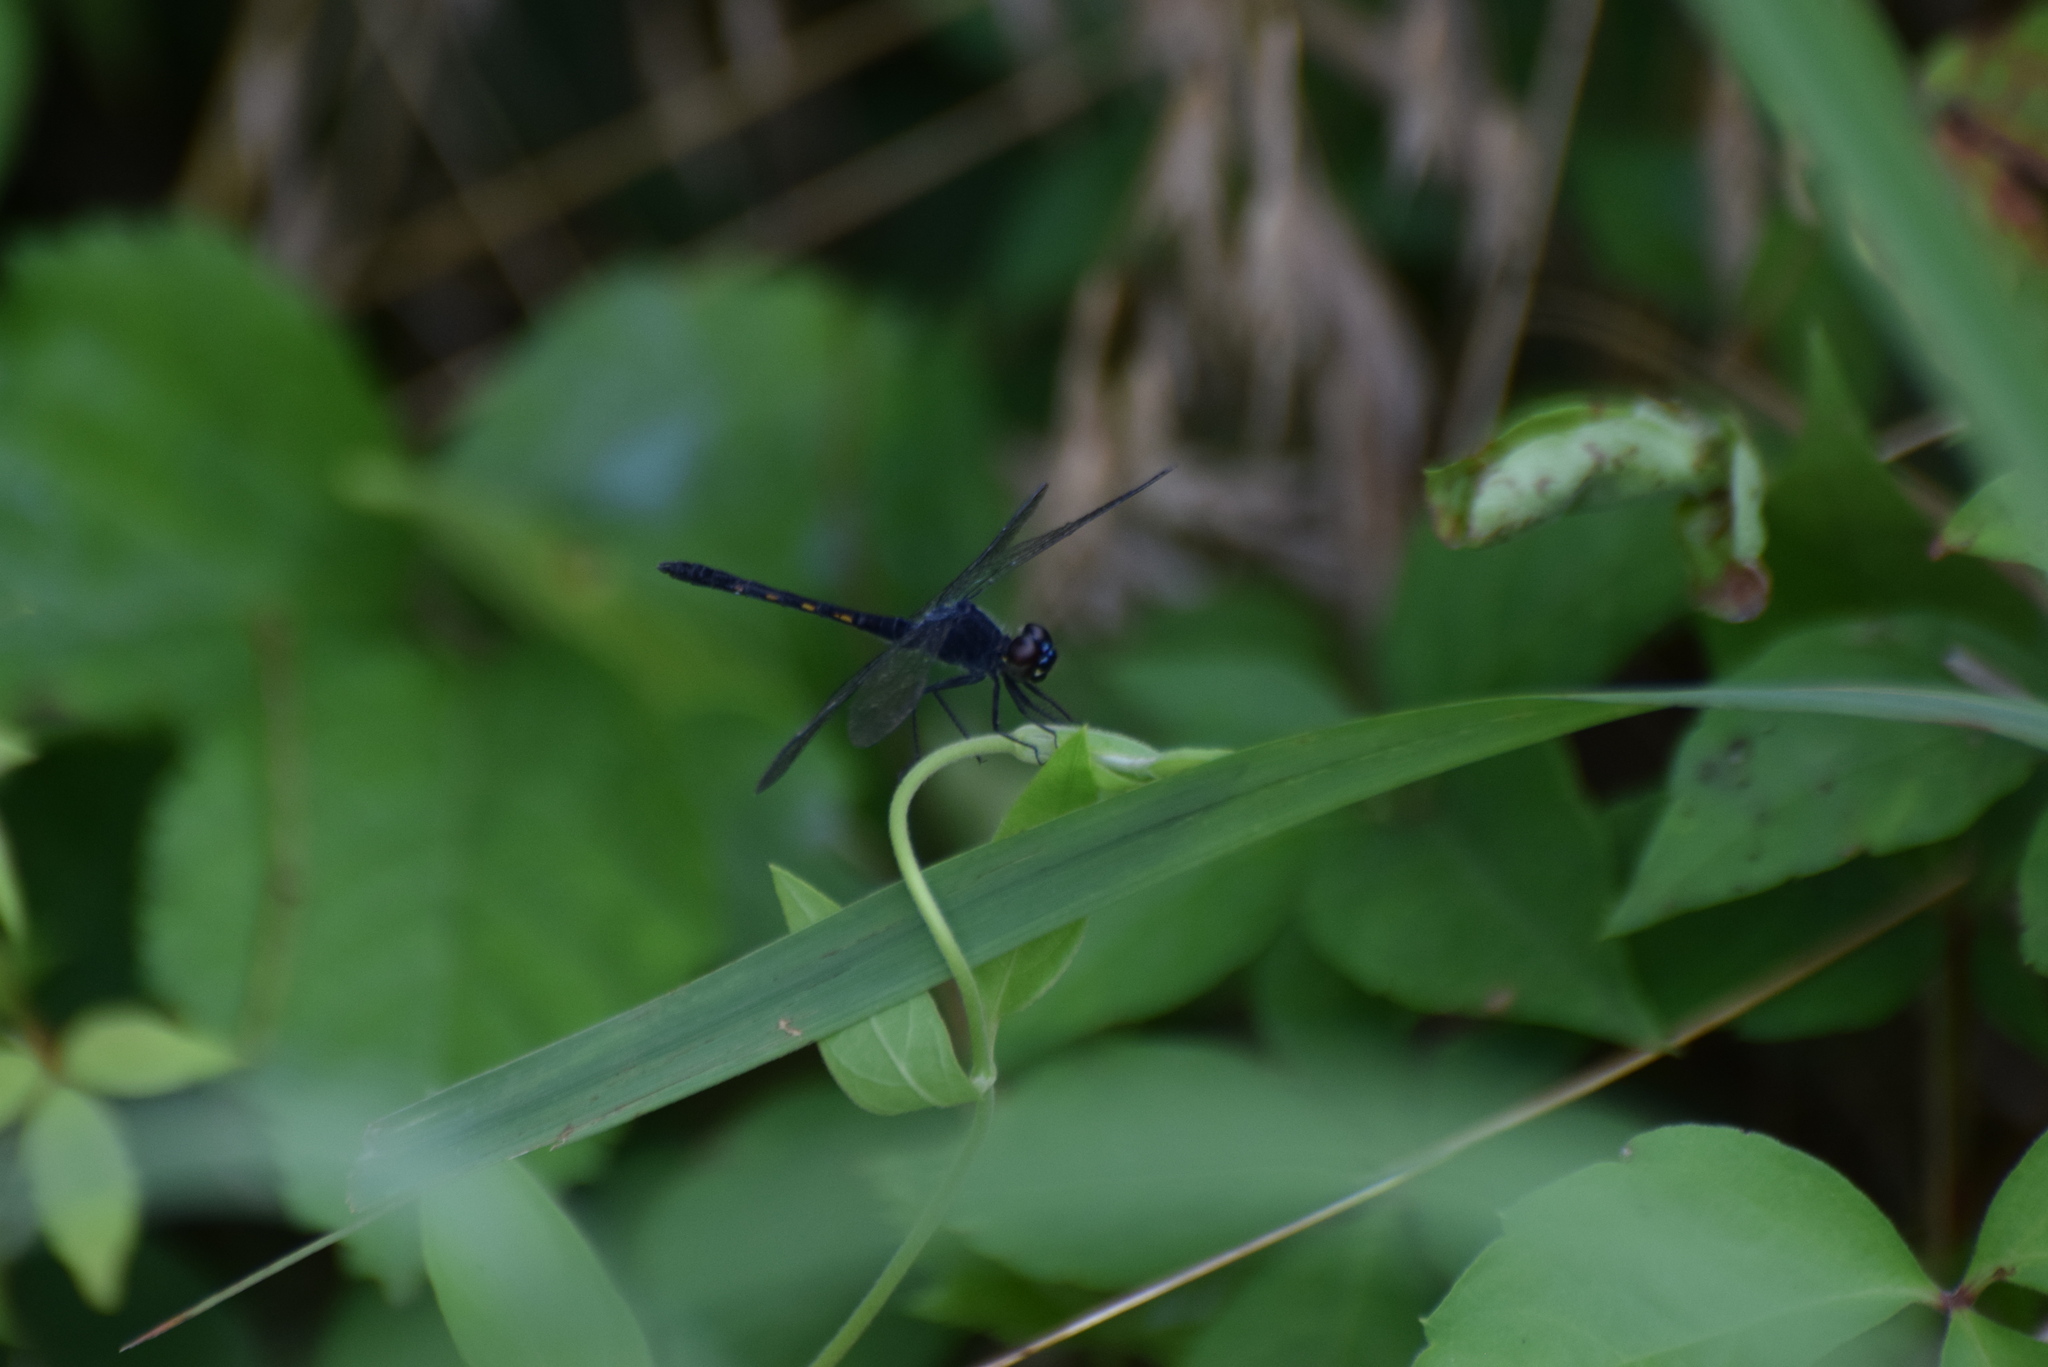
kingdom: Animalia
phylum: Arthropoda
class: Insecta
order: Odonata
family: Libellulidae
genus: Erythrodiplax
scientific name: Erythrodiplax berenice
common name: Seaside dragonlet
